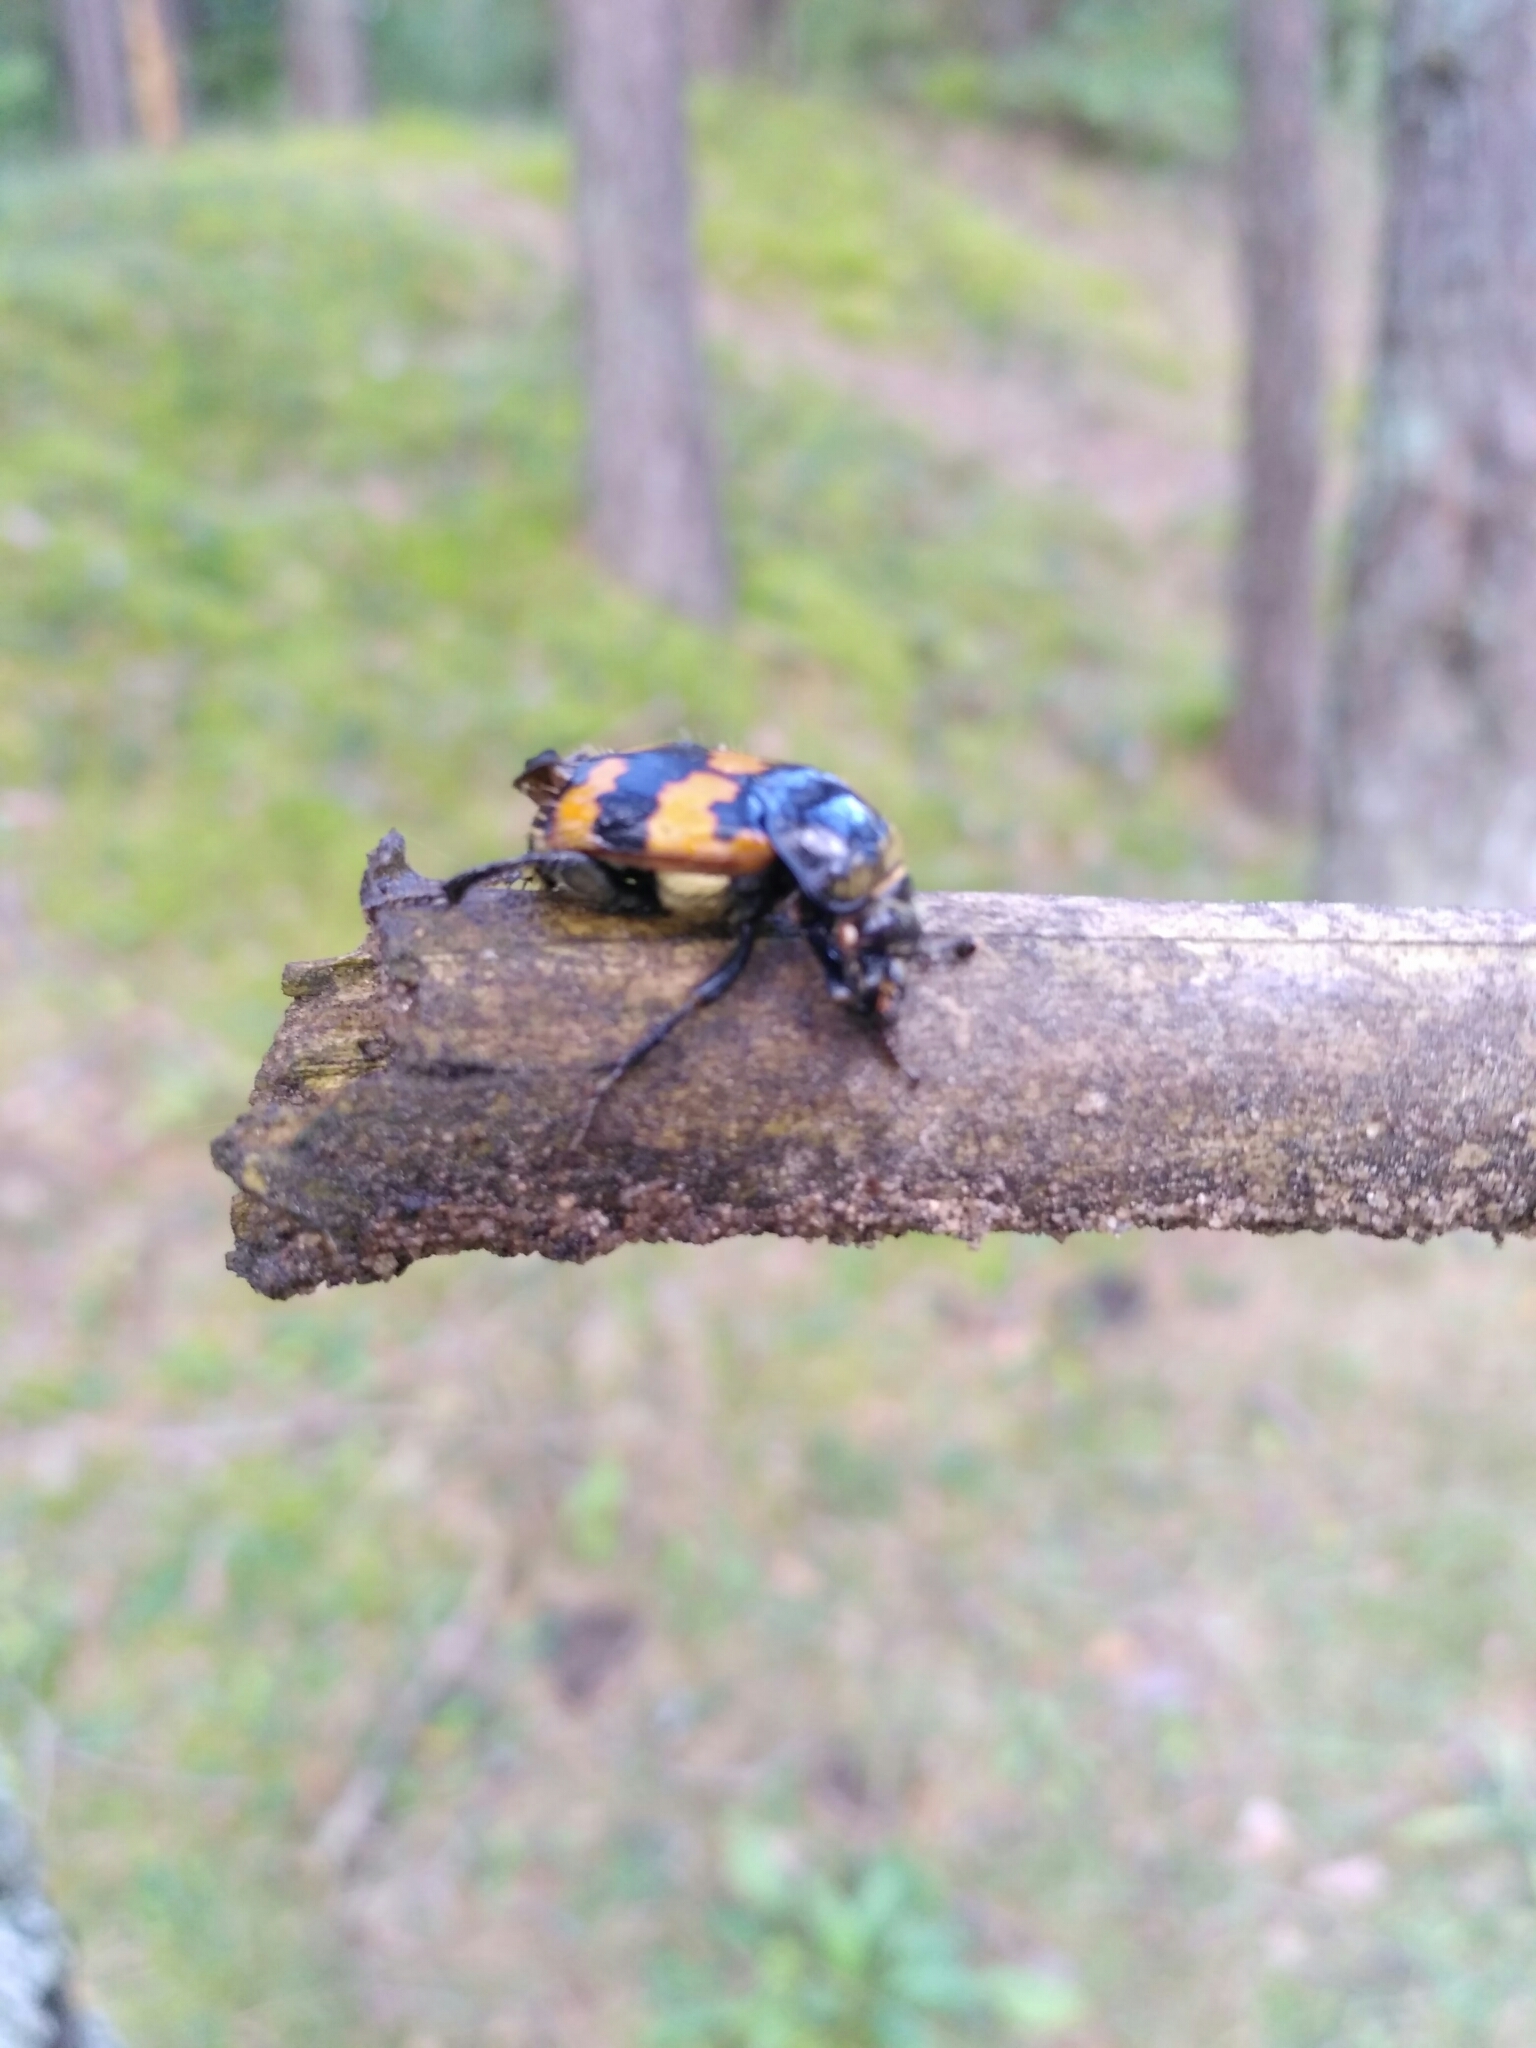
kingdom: Animalia
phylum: Arthropoda
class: Insecta
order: Coleoptera
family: Staphylinidae
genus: Nicrophorus
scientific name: Nicrophorus vespillo
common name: Common burying beetle
